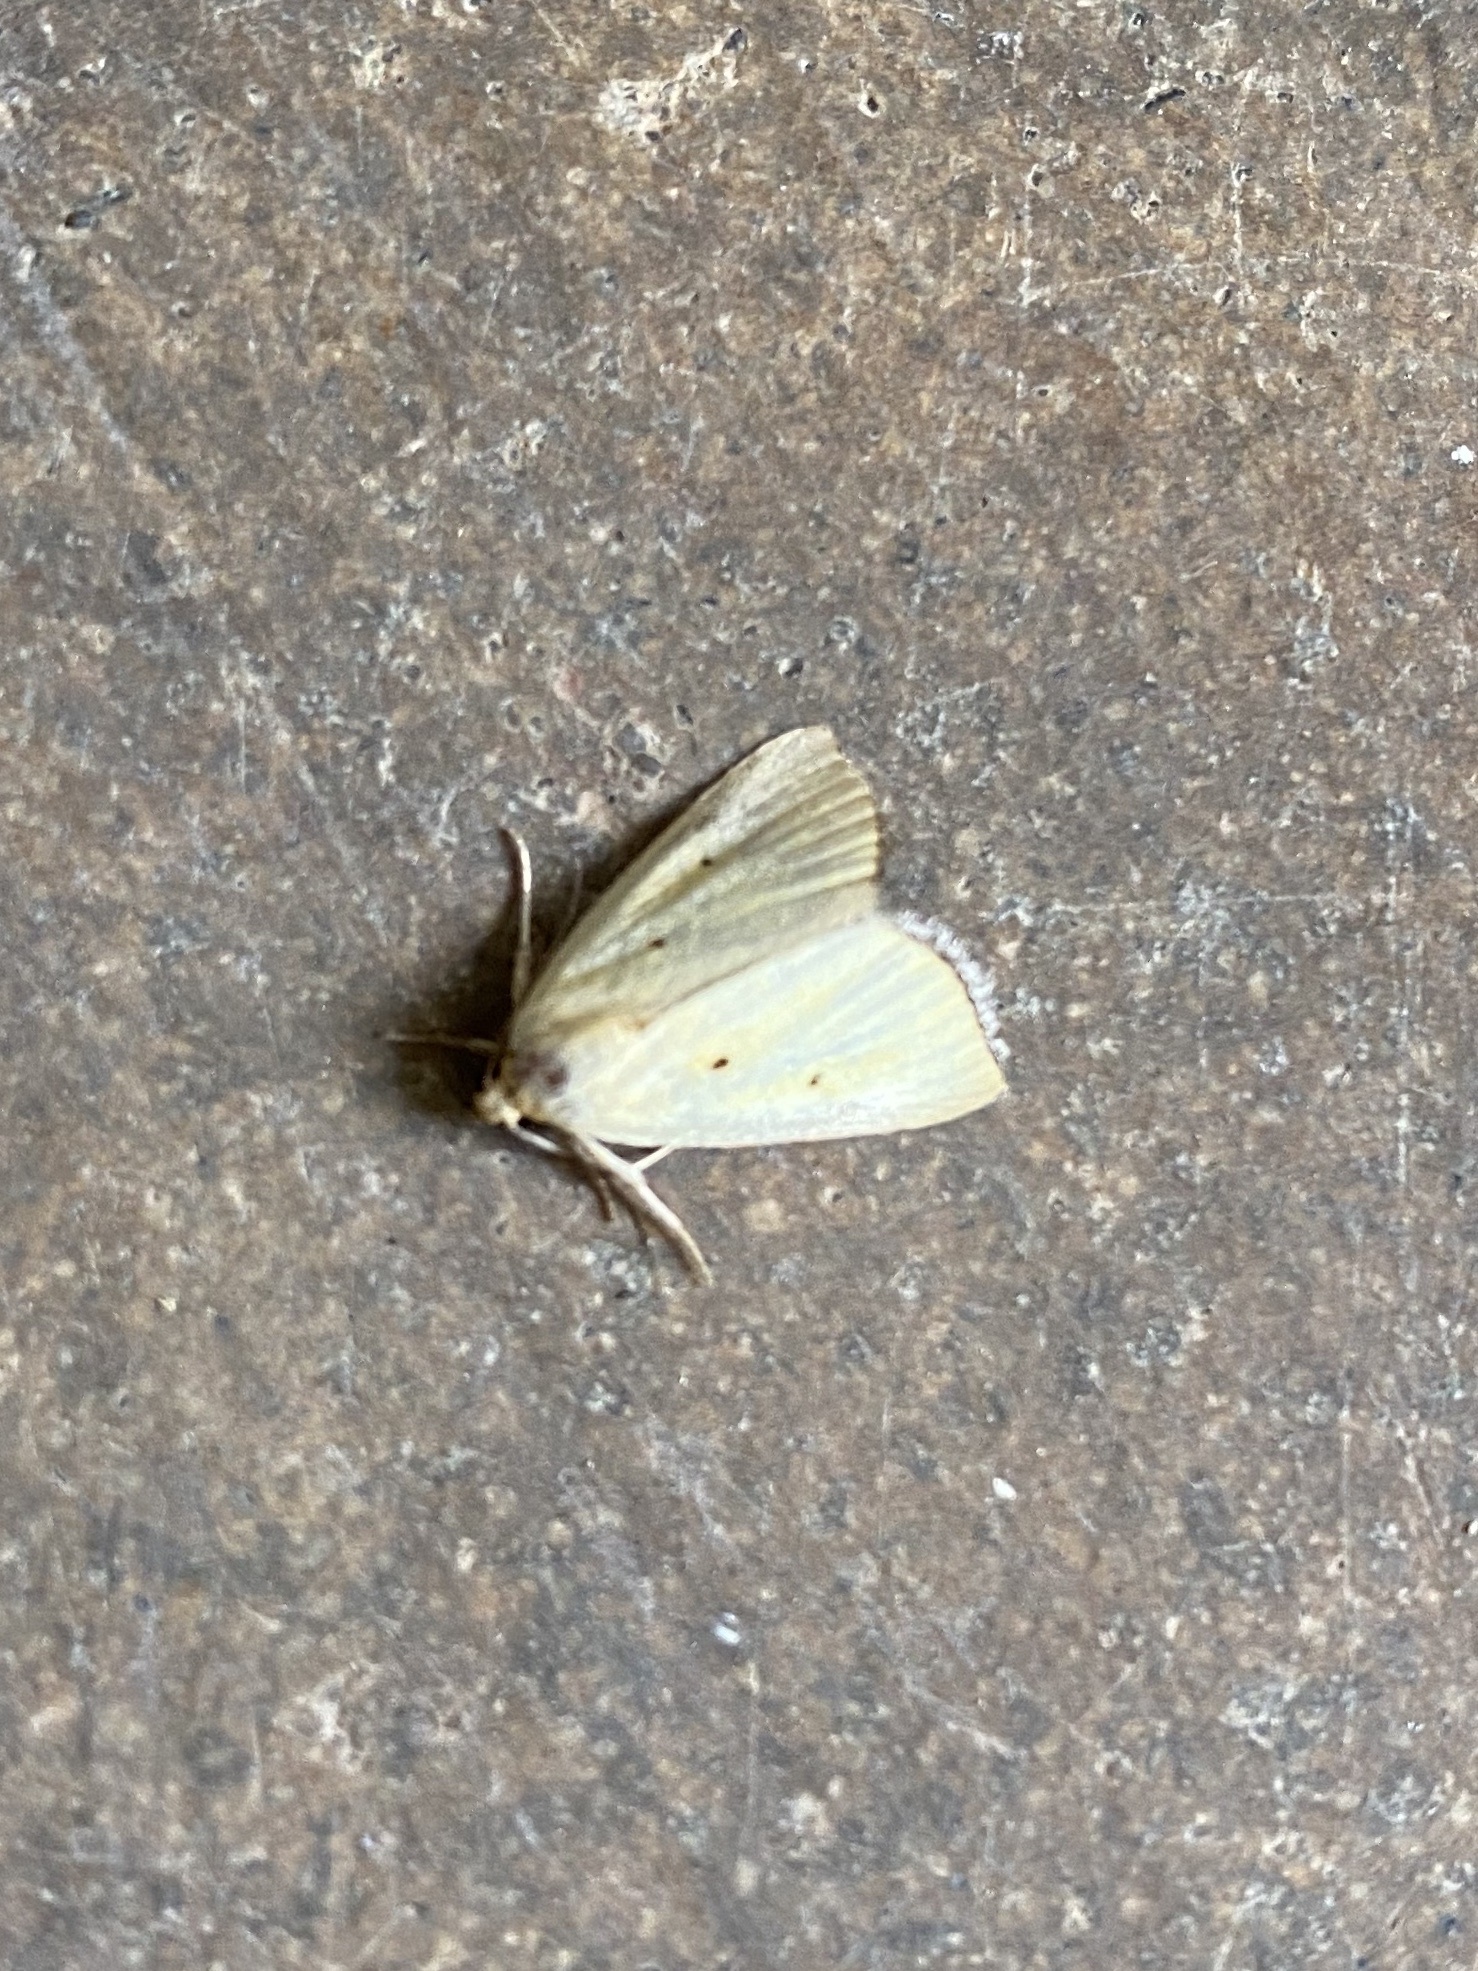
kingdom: Animalia
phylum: Arthropoda
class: Insecta
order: Lepidoptera
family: Noctuidae
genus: Marimatha
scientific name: Marimatha nigrofimbria
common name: Black-bordered lemon moth
